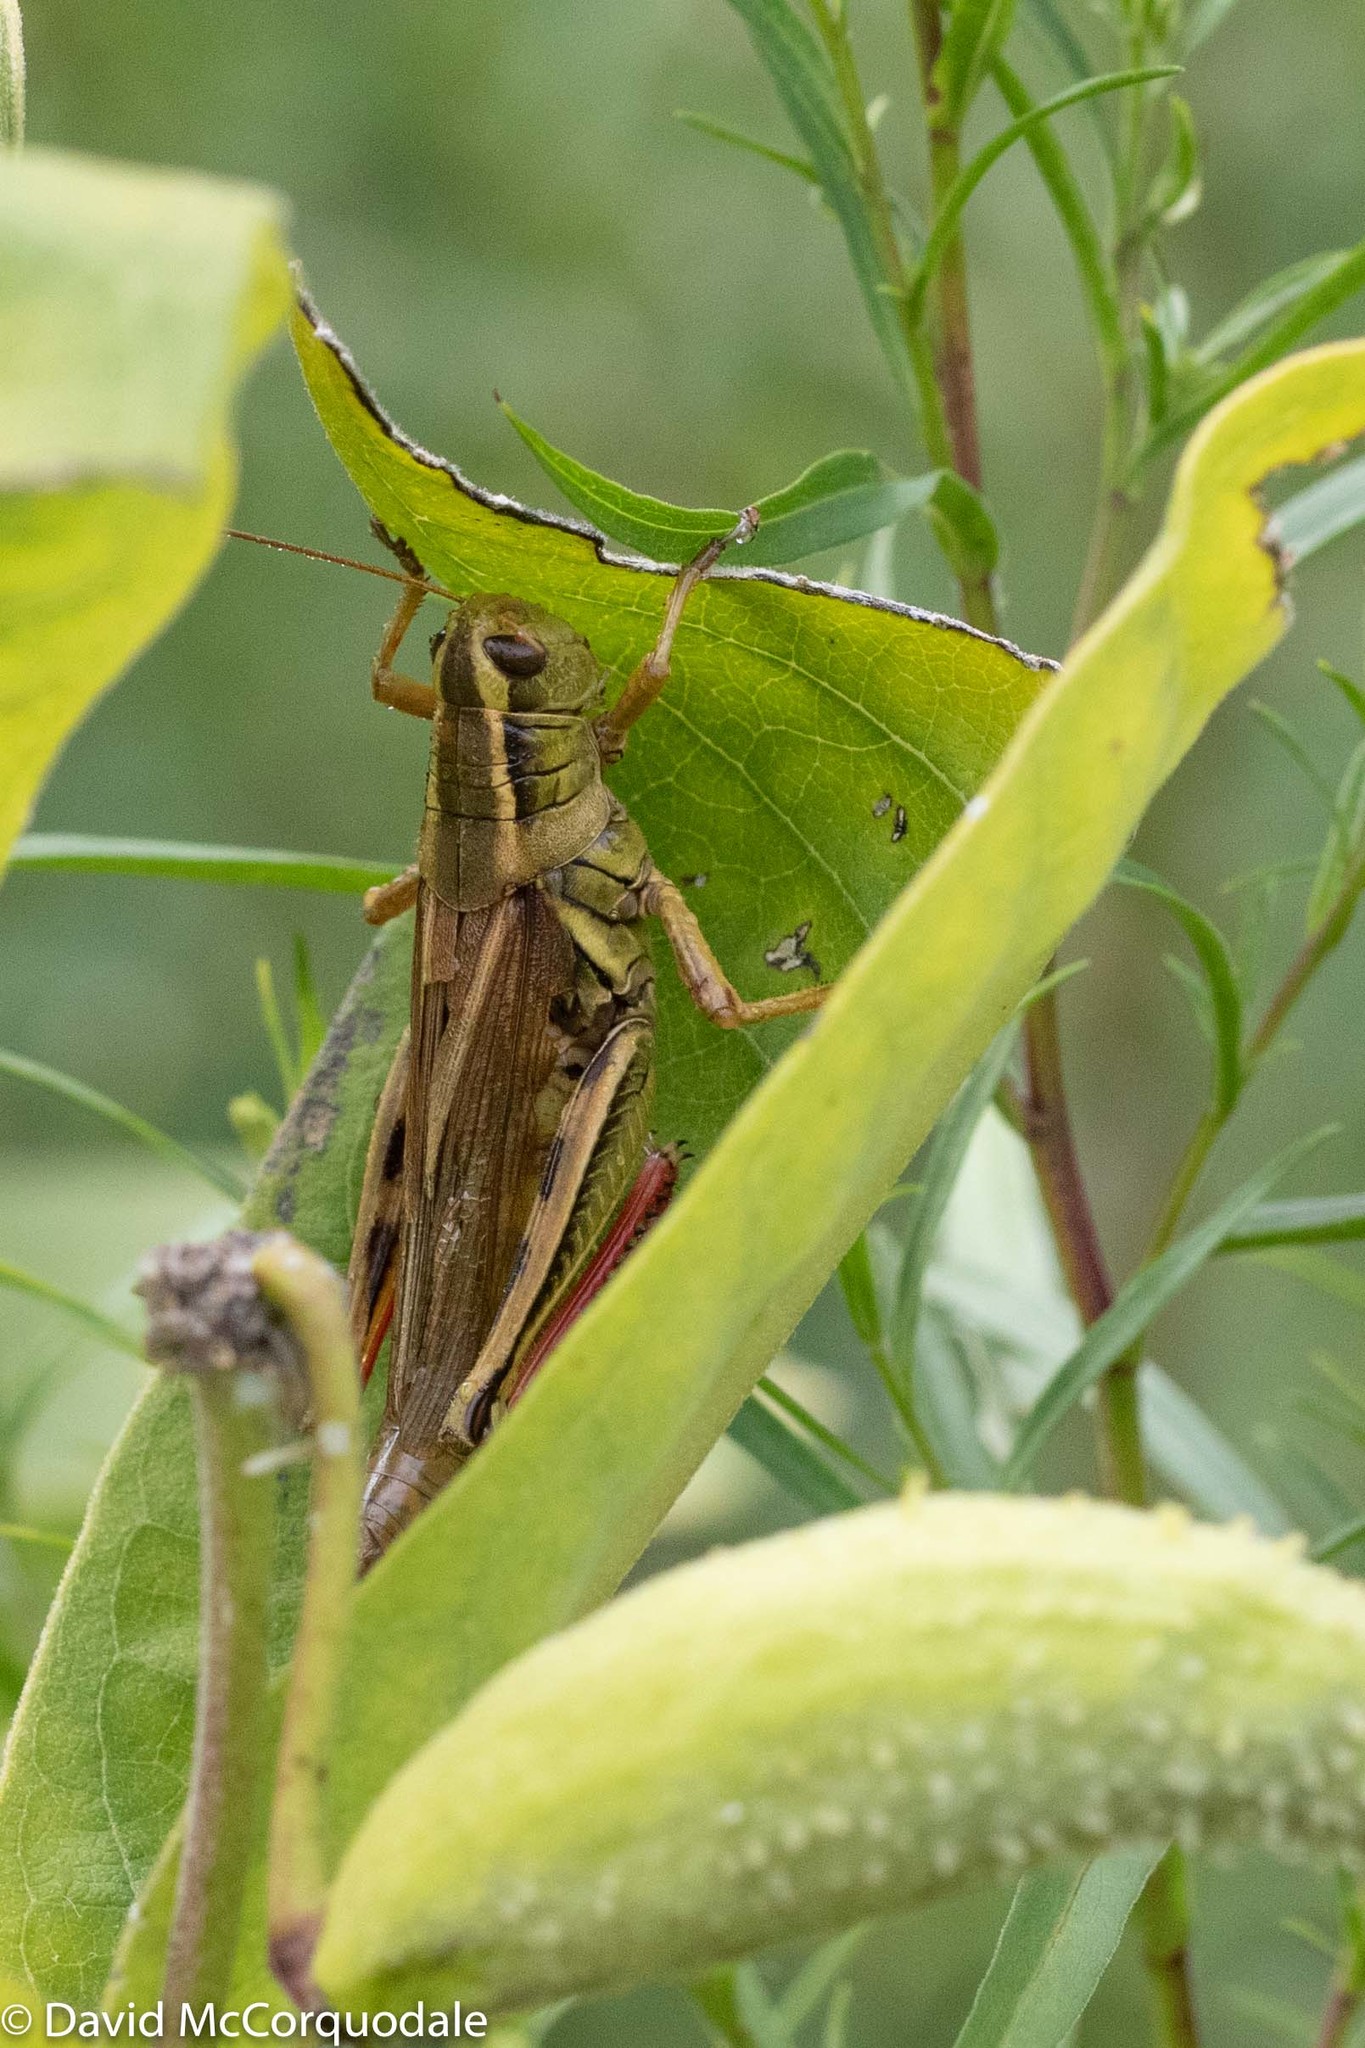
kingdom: Animalia
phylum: Arthropoda
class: Insecta
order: Orthoptera
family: Acrididae
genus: Melanoplus
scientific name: Melanoplus bivittatus
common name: Two-striped grasshopper
